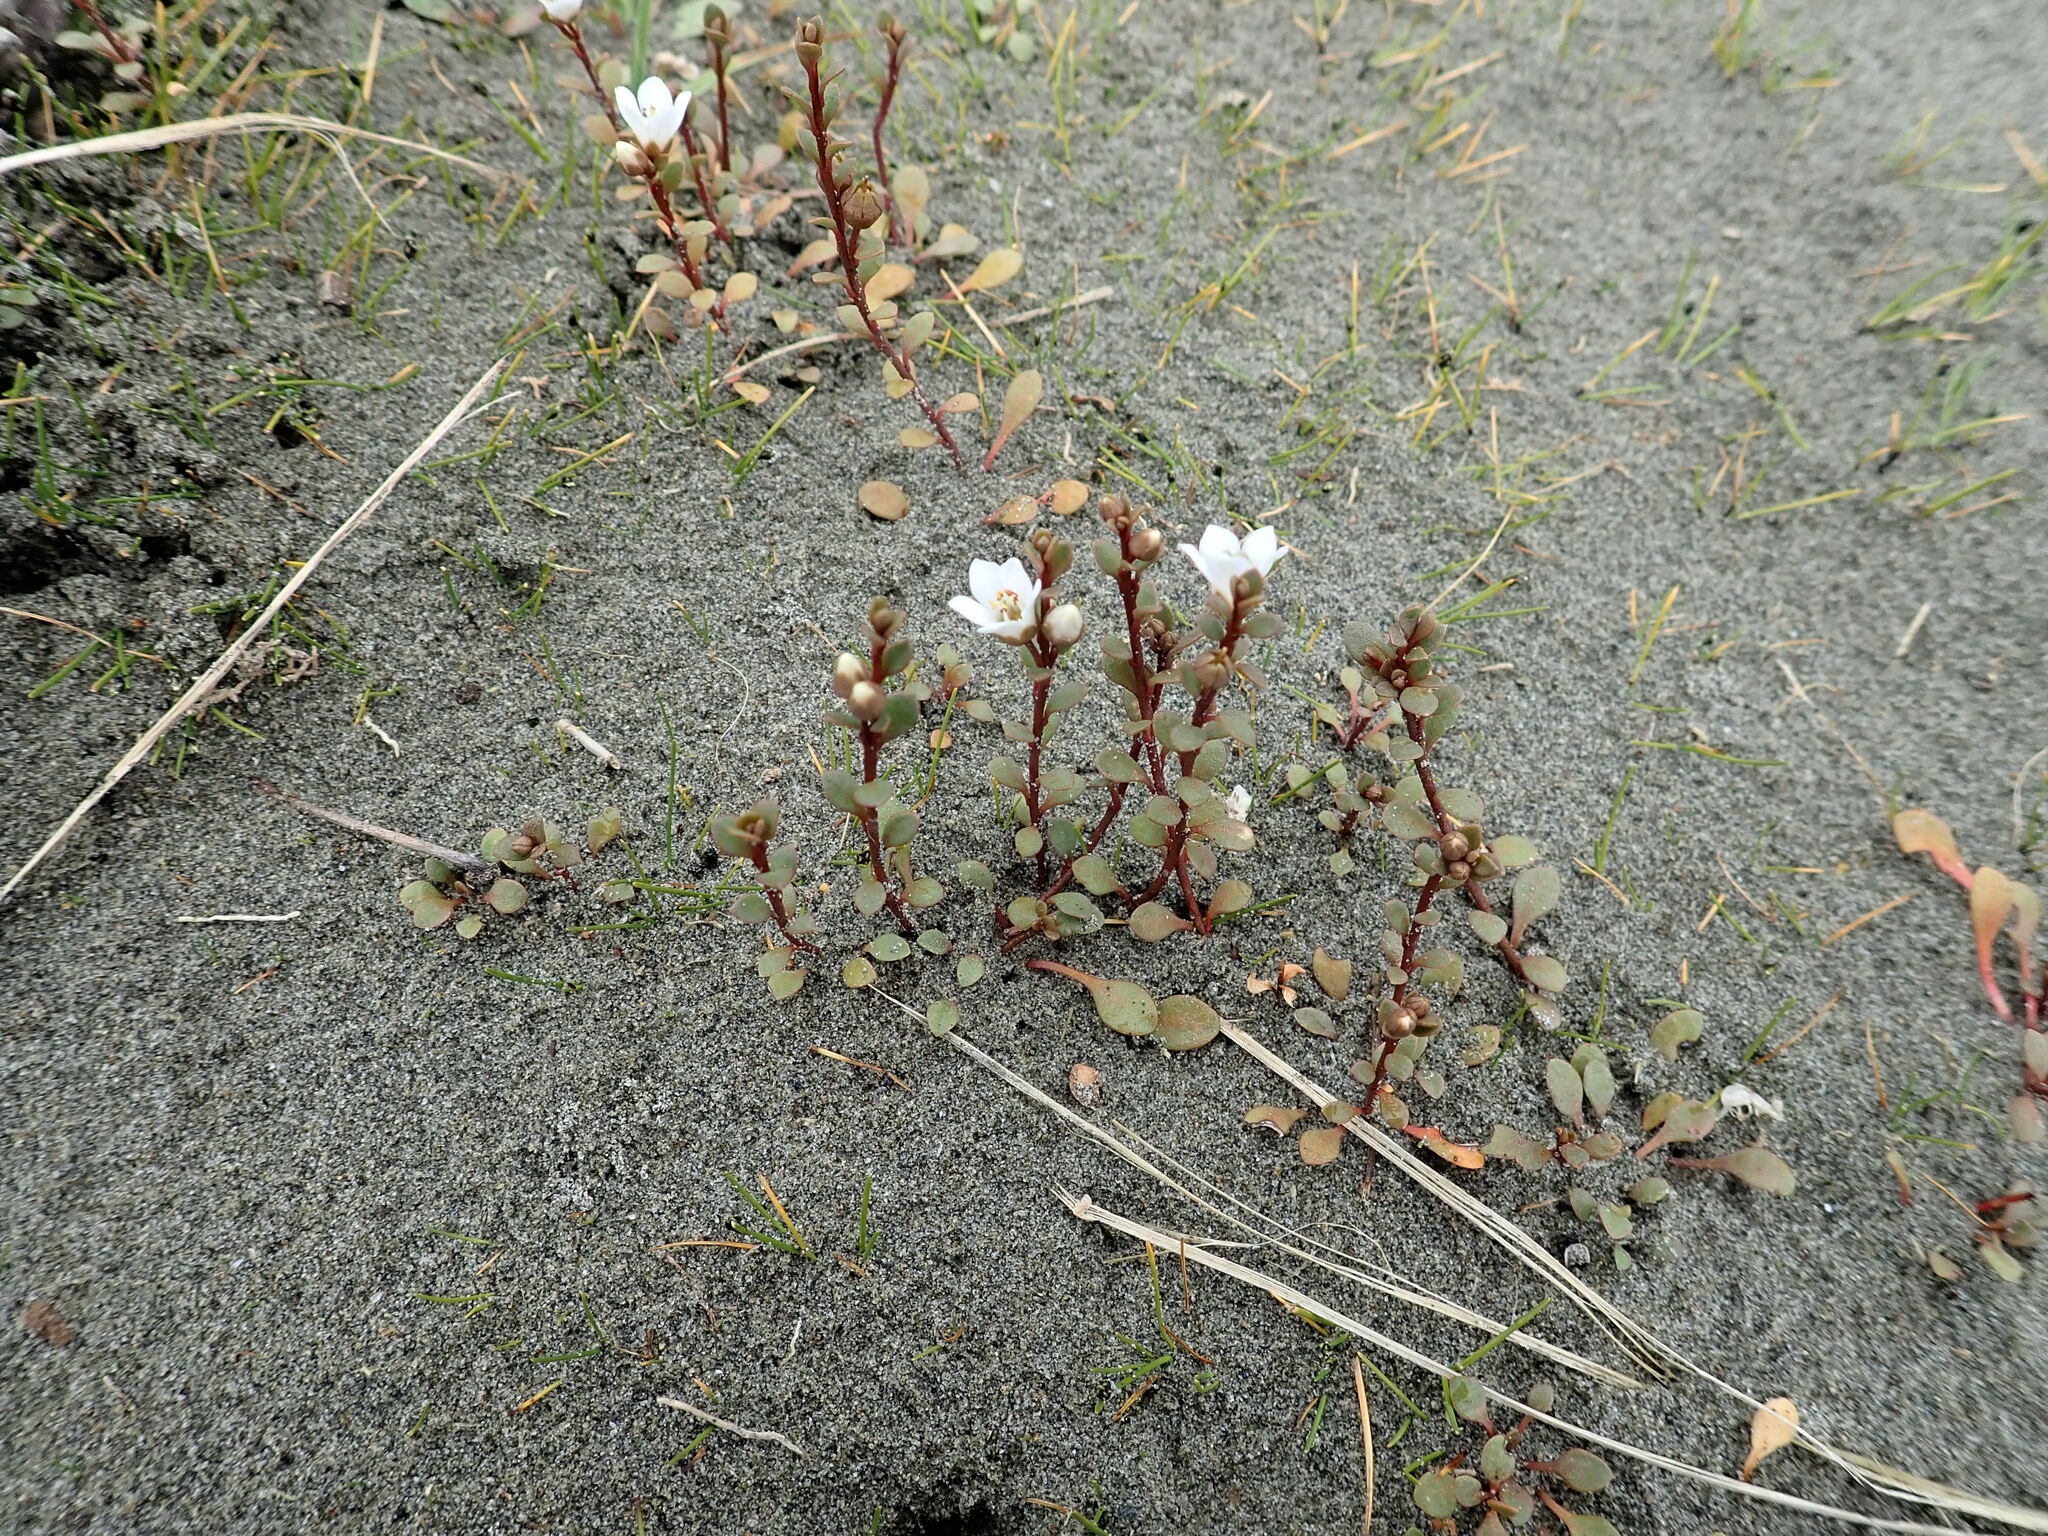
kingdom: Plantae
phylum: Tracheophyta
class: Magnoliopsida
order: Ericales
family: Primulaceae
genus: Samolus
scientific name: Samolus repens
